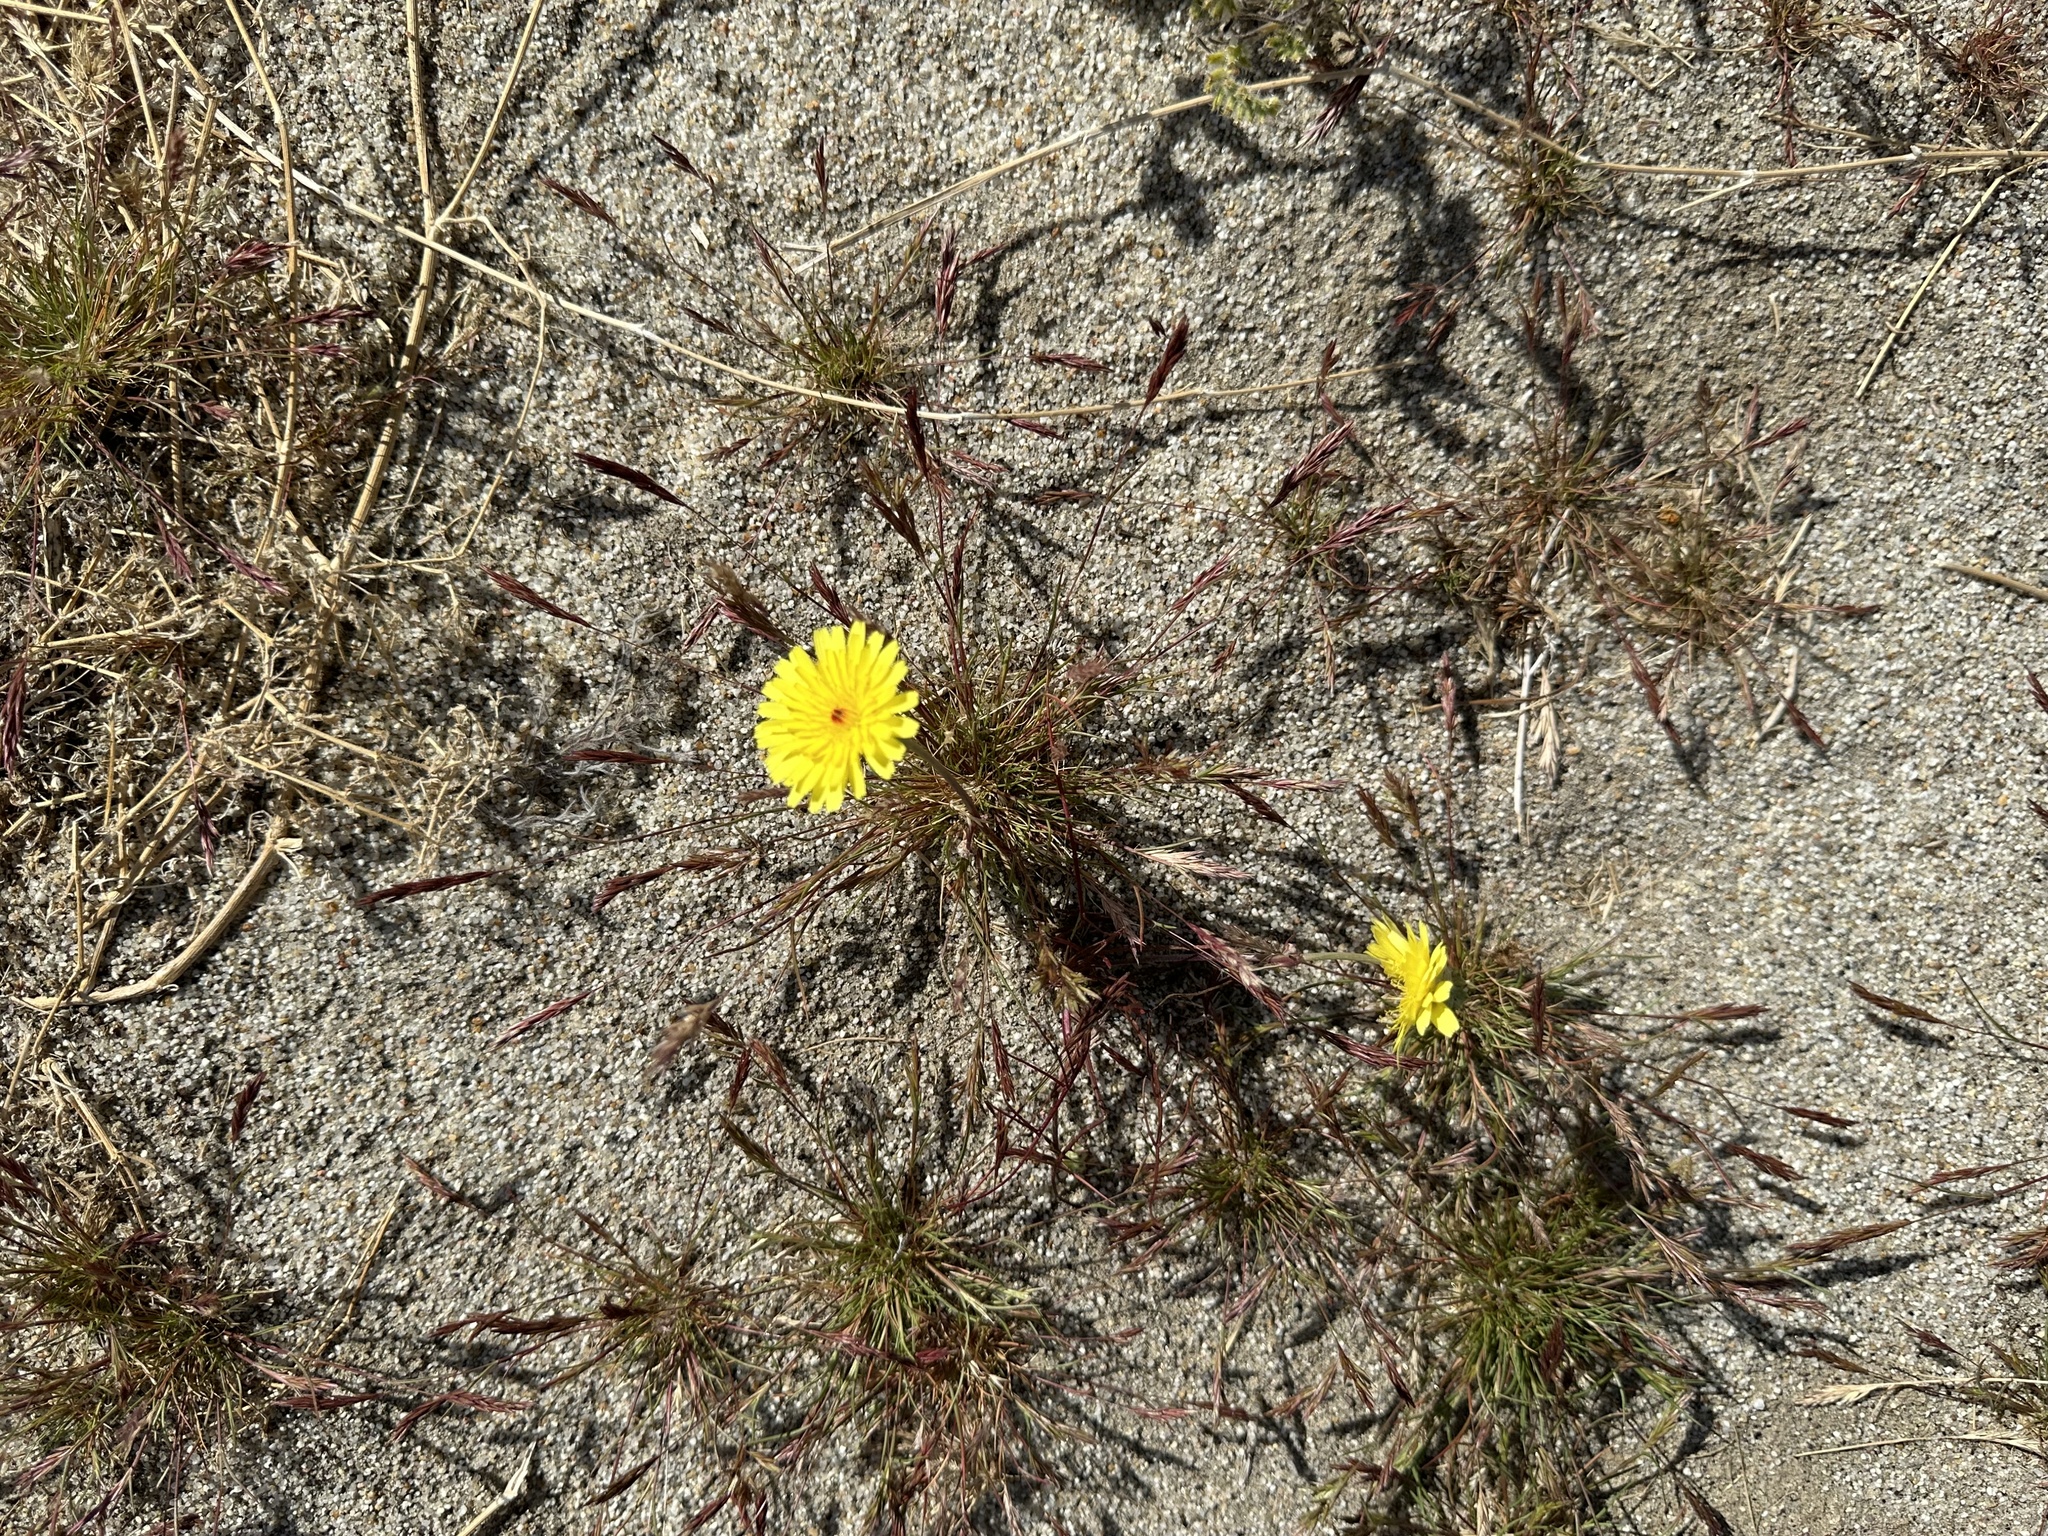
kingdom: Plantae
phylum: Tracheophyta
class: Magnoliopsida
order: Asterales
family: Asteraceae
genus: Malacothrix
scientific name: Malacothrix glabrata
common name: Smooth desert-dandelion
